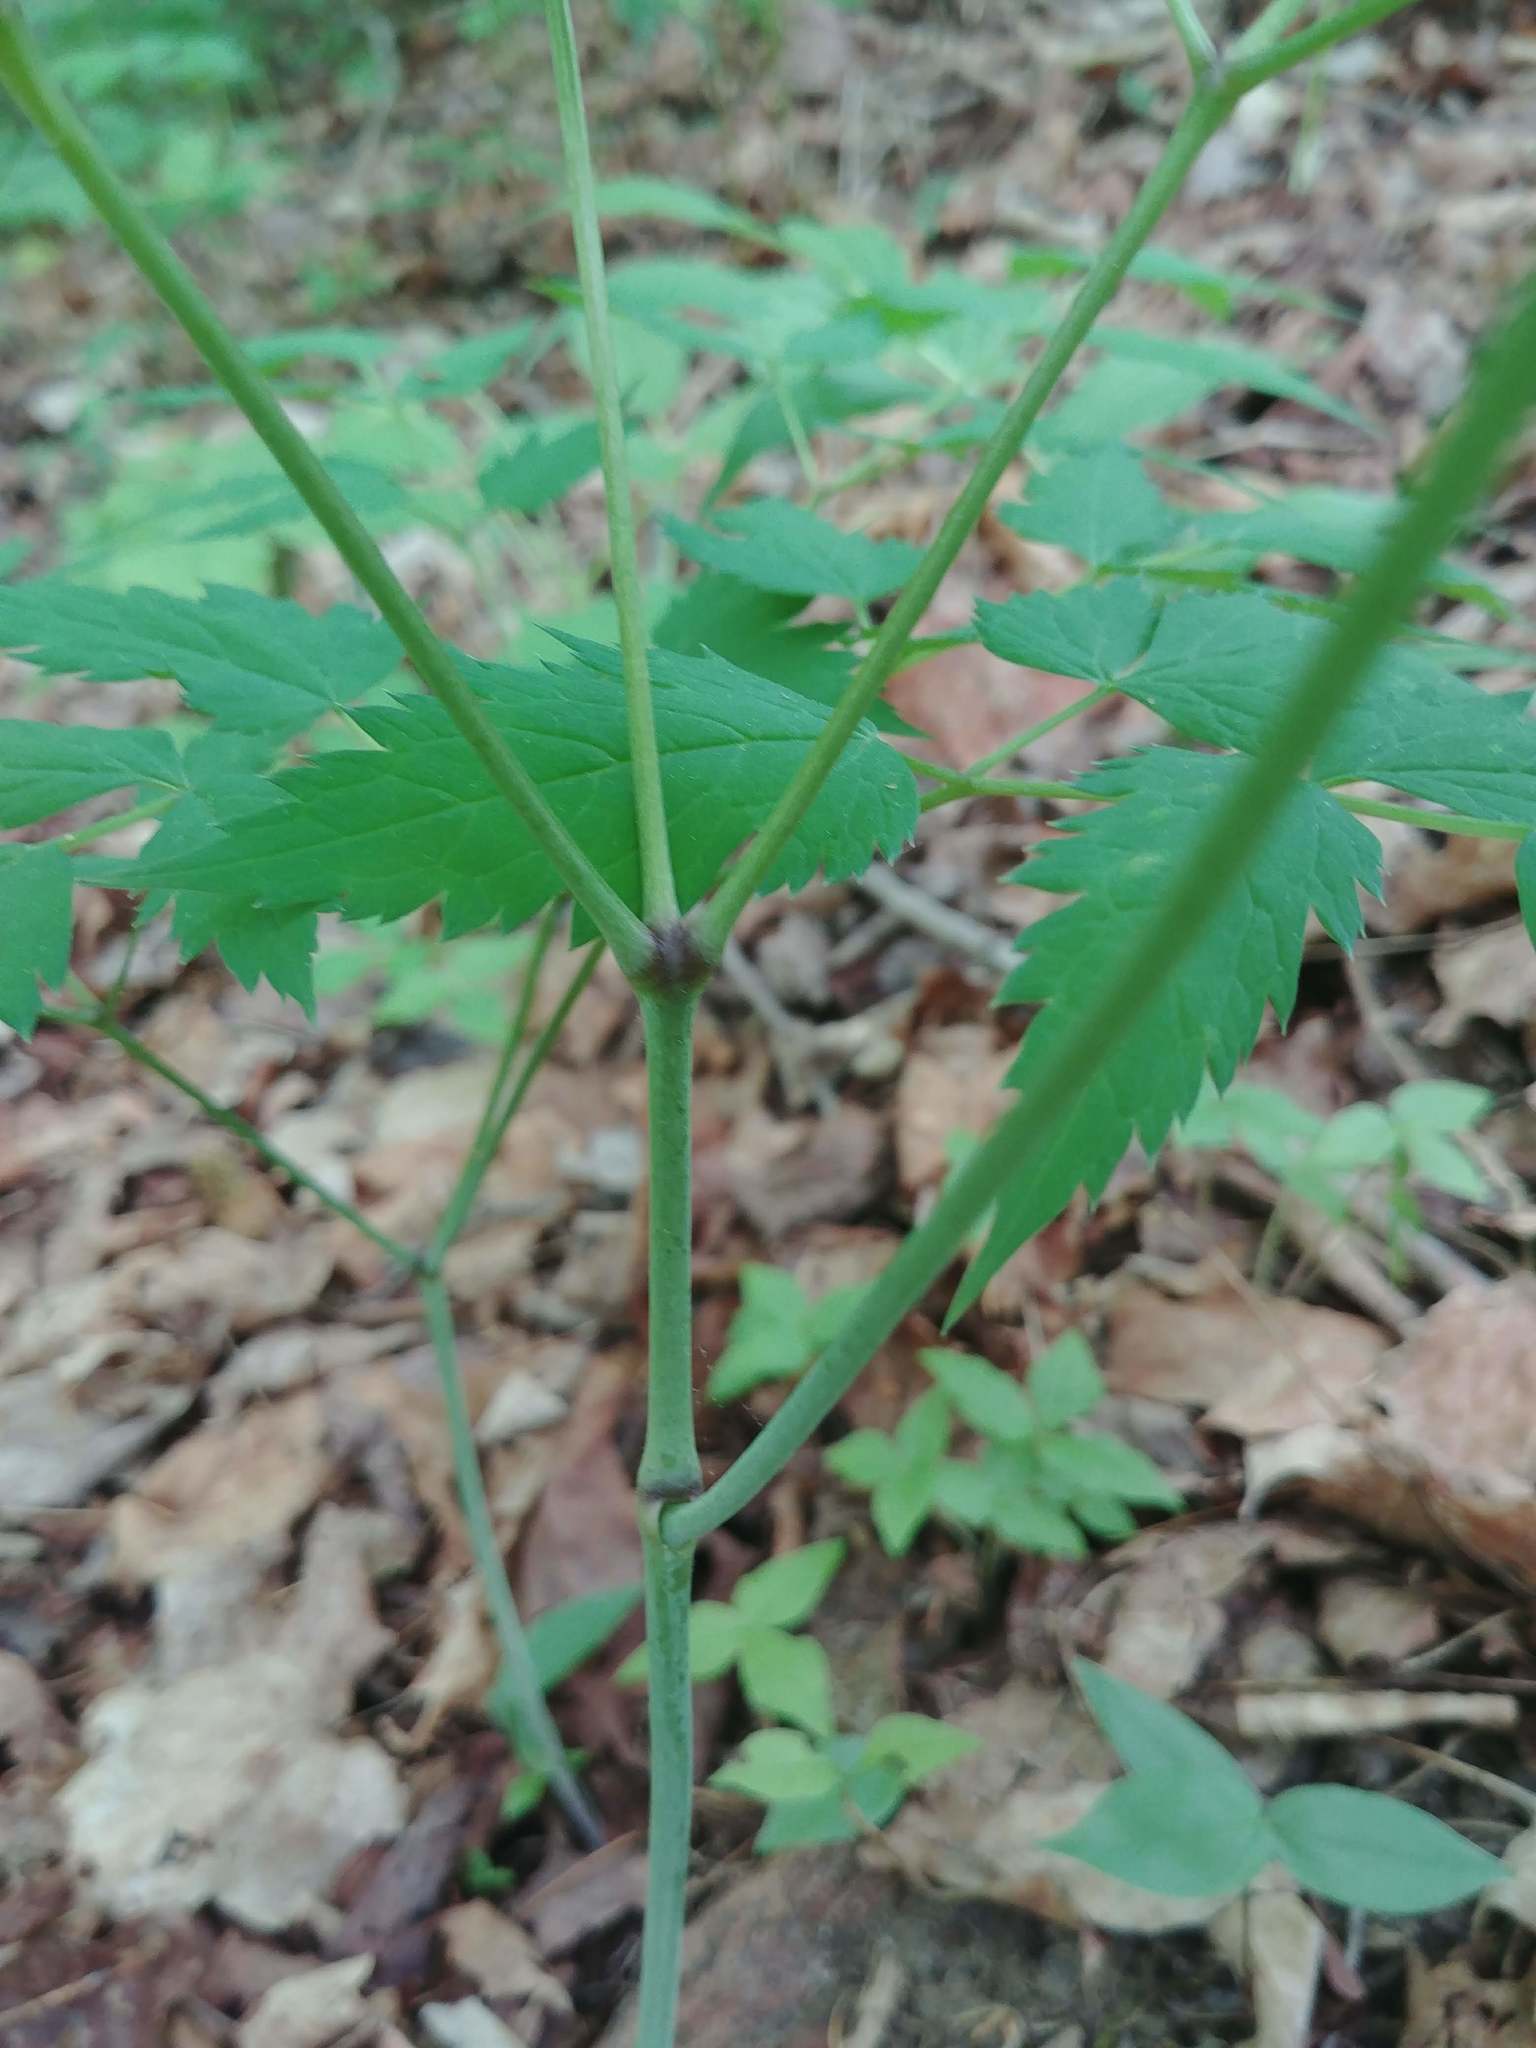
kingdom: Plantae
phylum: Tracheophyta
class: Magnoliopsida
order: Ranunculales
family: Ranunculaceae
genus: Actaea
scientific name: Actaea pachypoda
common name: Doll's-eyes
